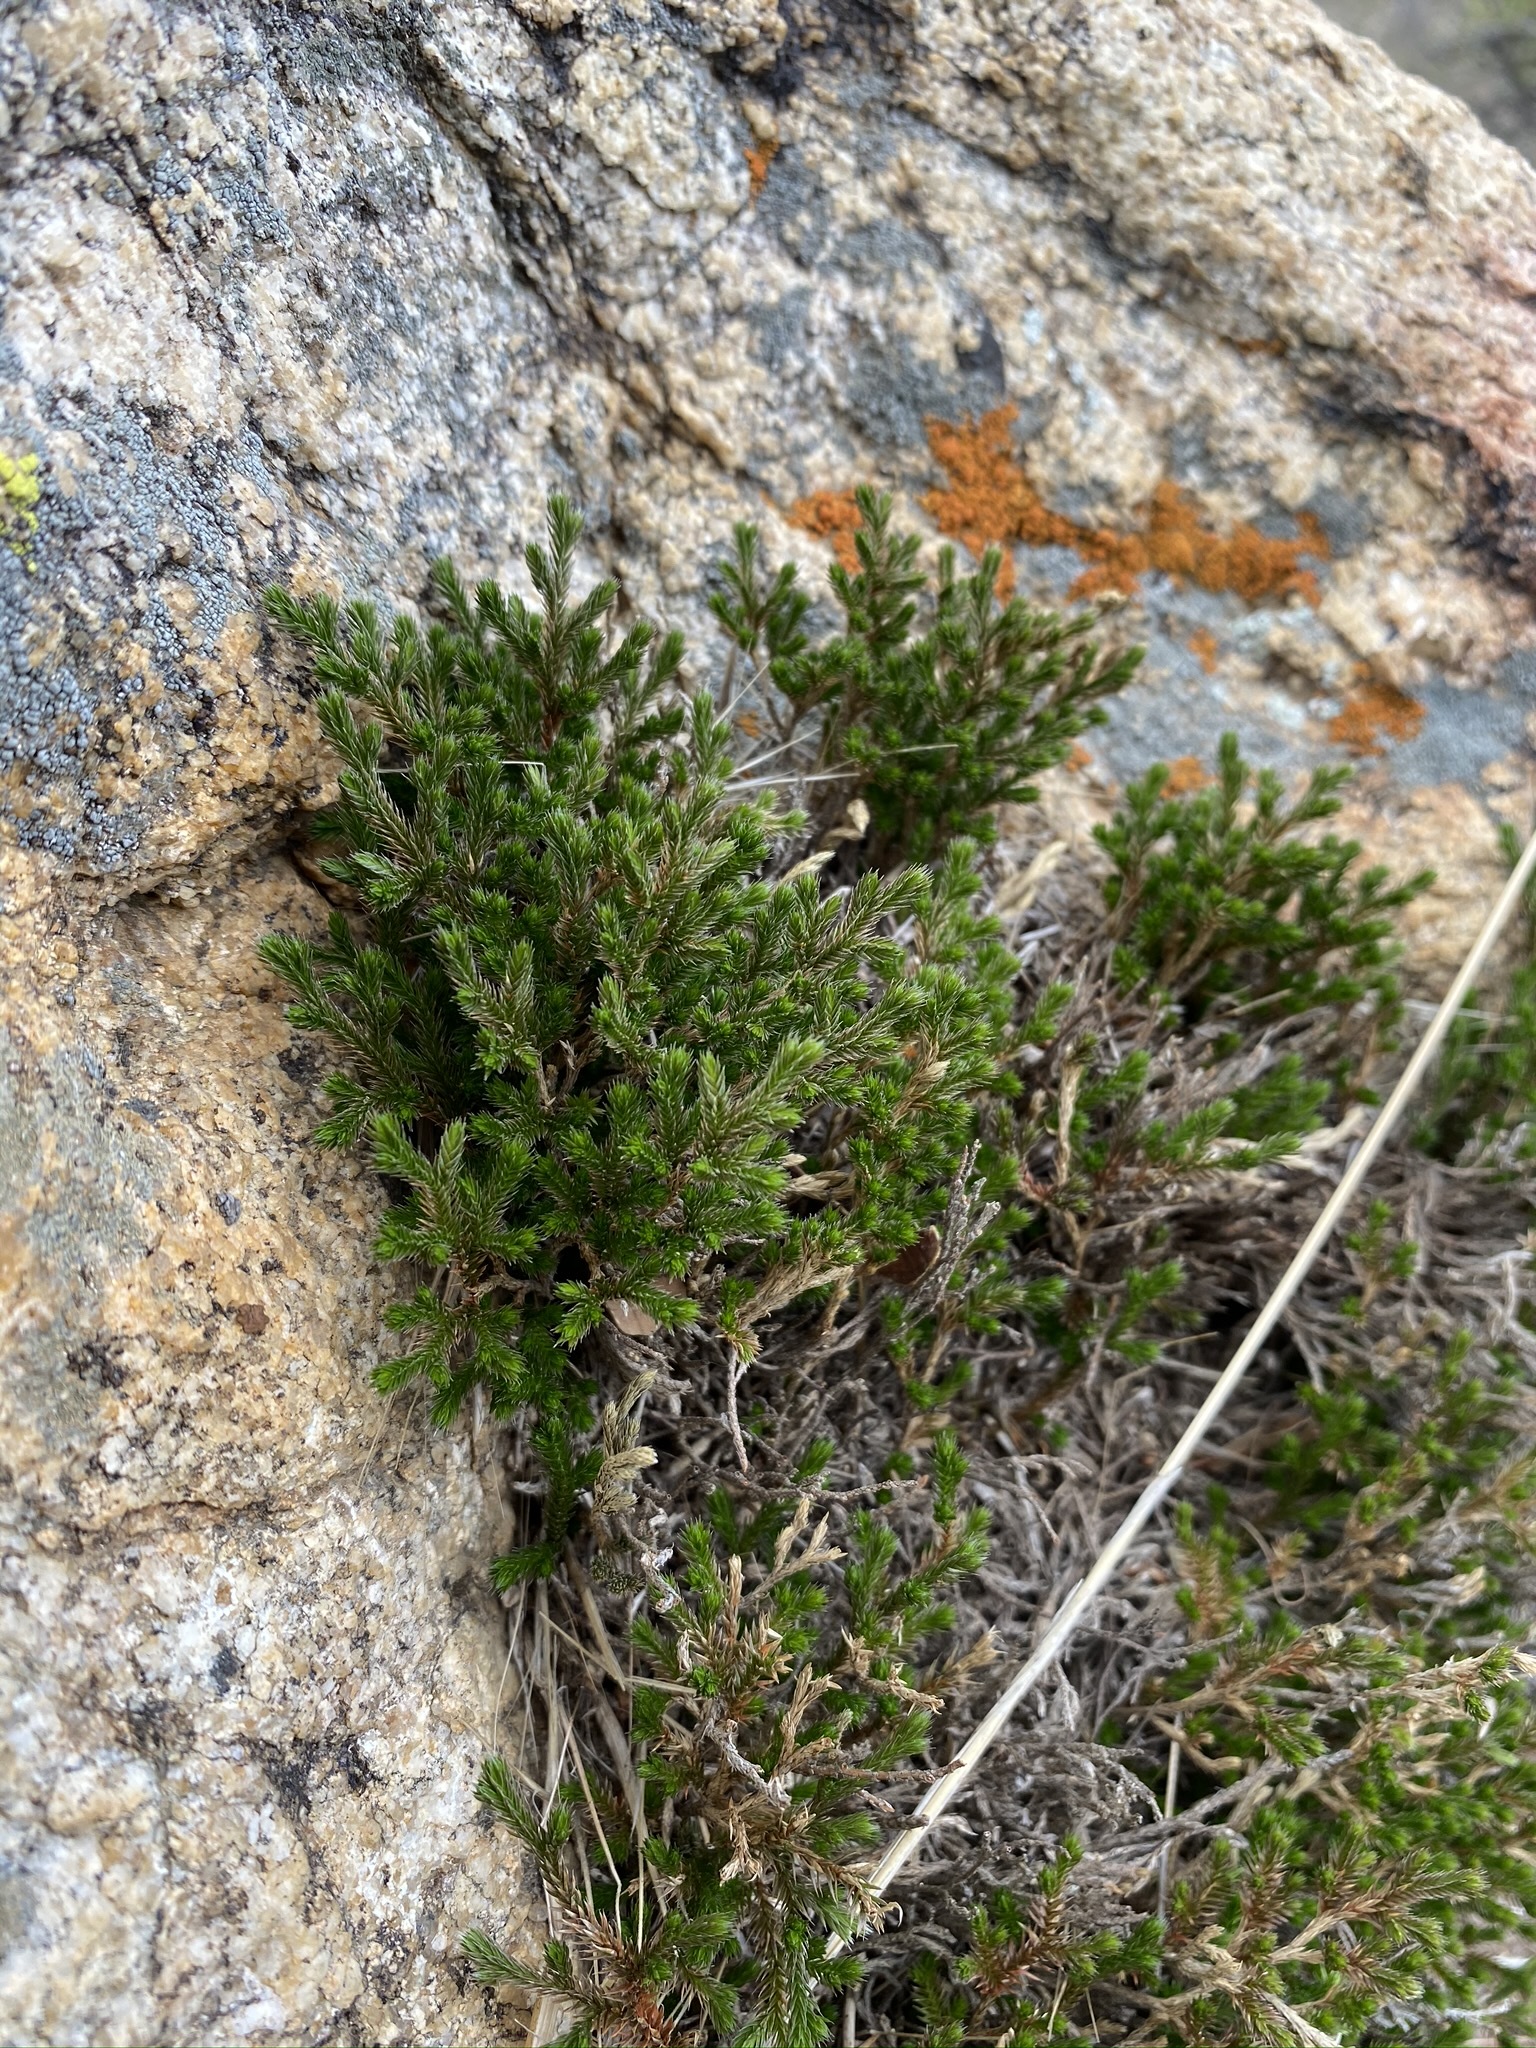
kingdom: Plantae
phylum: Tracheophyta
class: Lycopodiopsida
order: Selaginellales
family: Selaginellaceae
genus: Selaginella
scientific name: Selaginella bigelovii
